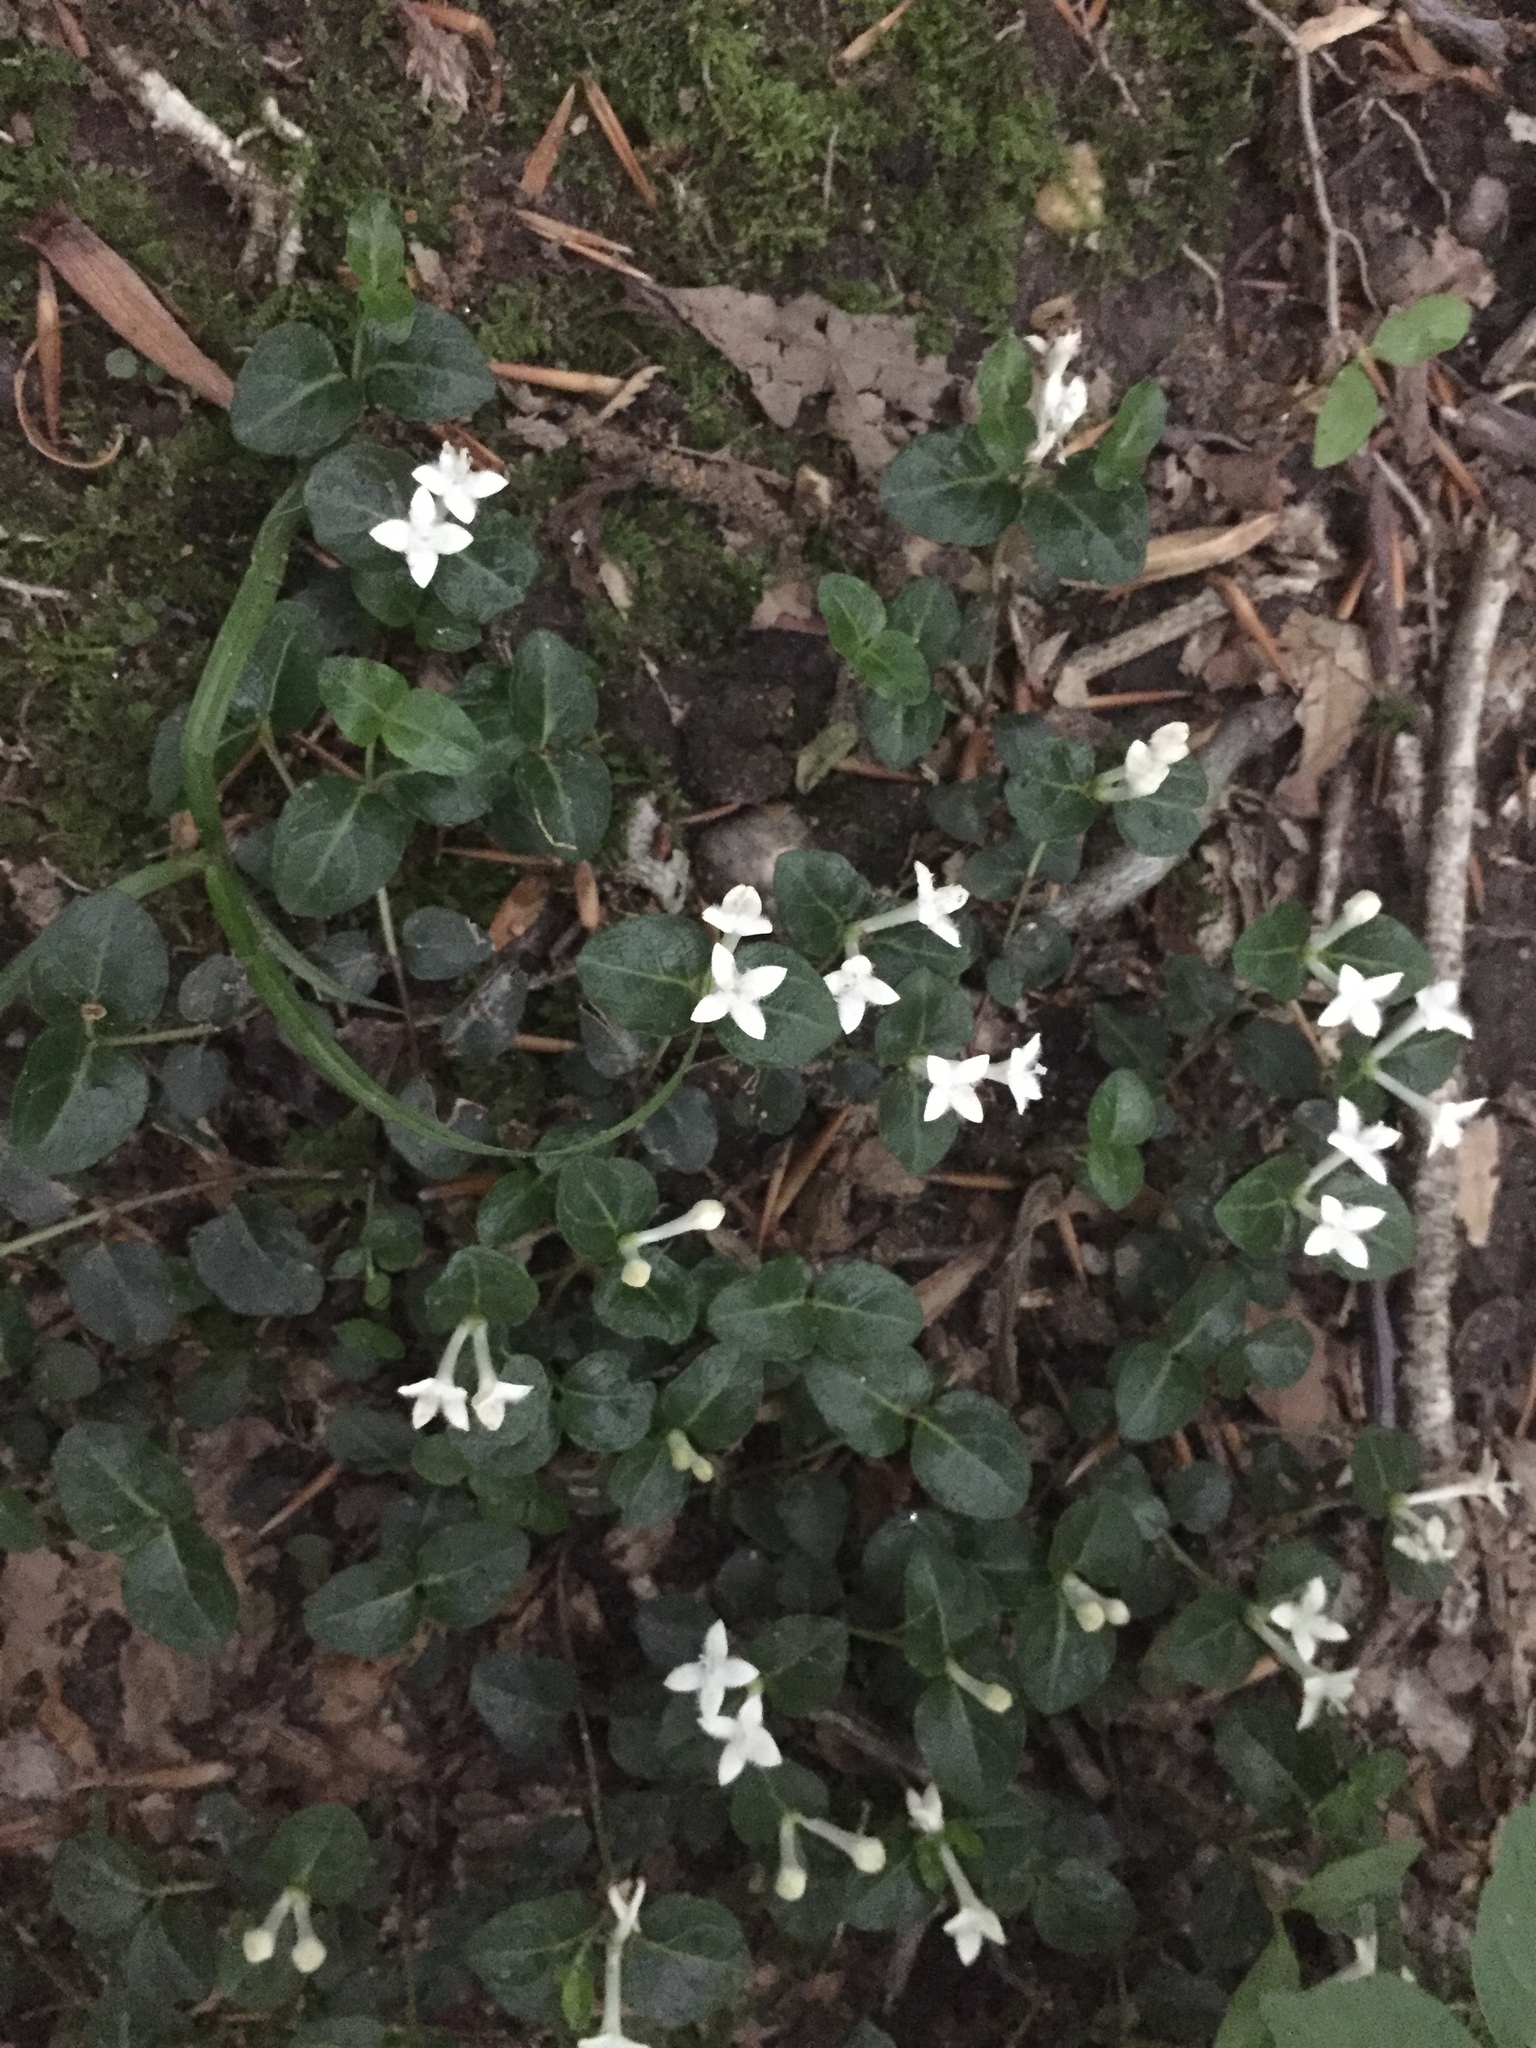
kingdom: Plantae
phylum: Tracheophyta
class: Magnoliopsida
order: Gentianales
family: Rubiaceae
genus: Mitchella
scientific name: Mitchella repens
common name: Partridge-berry
